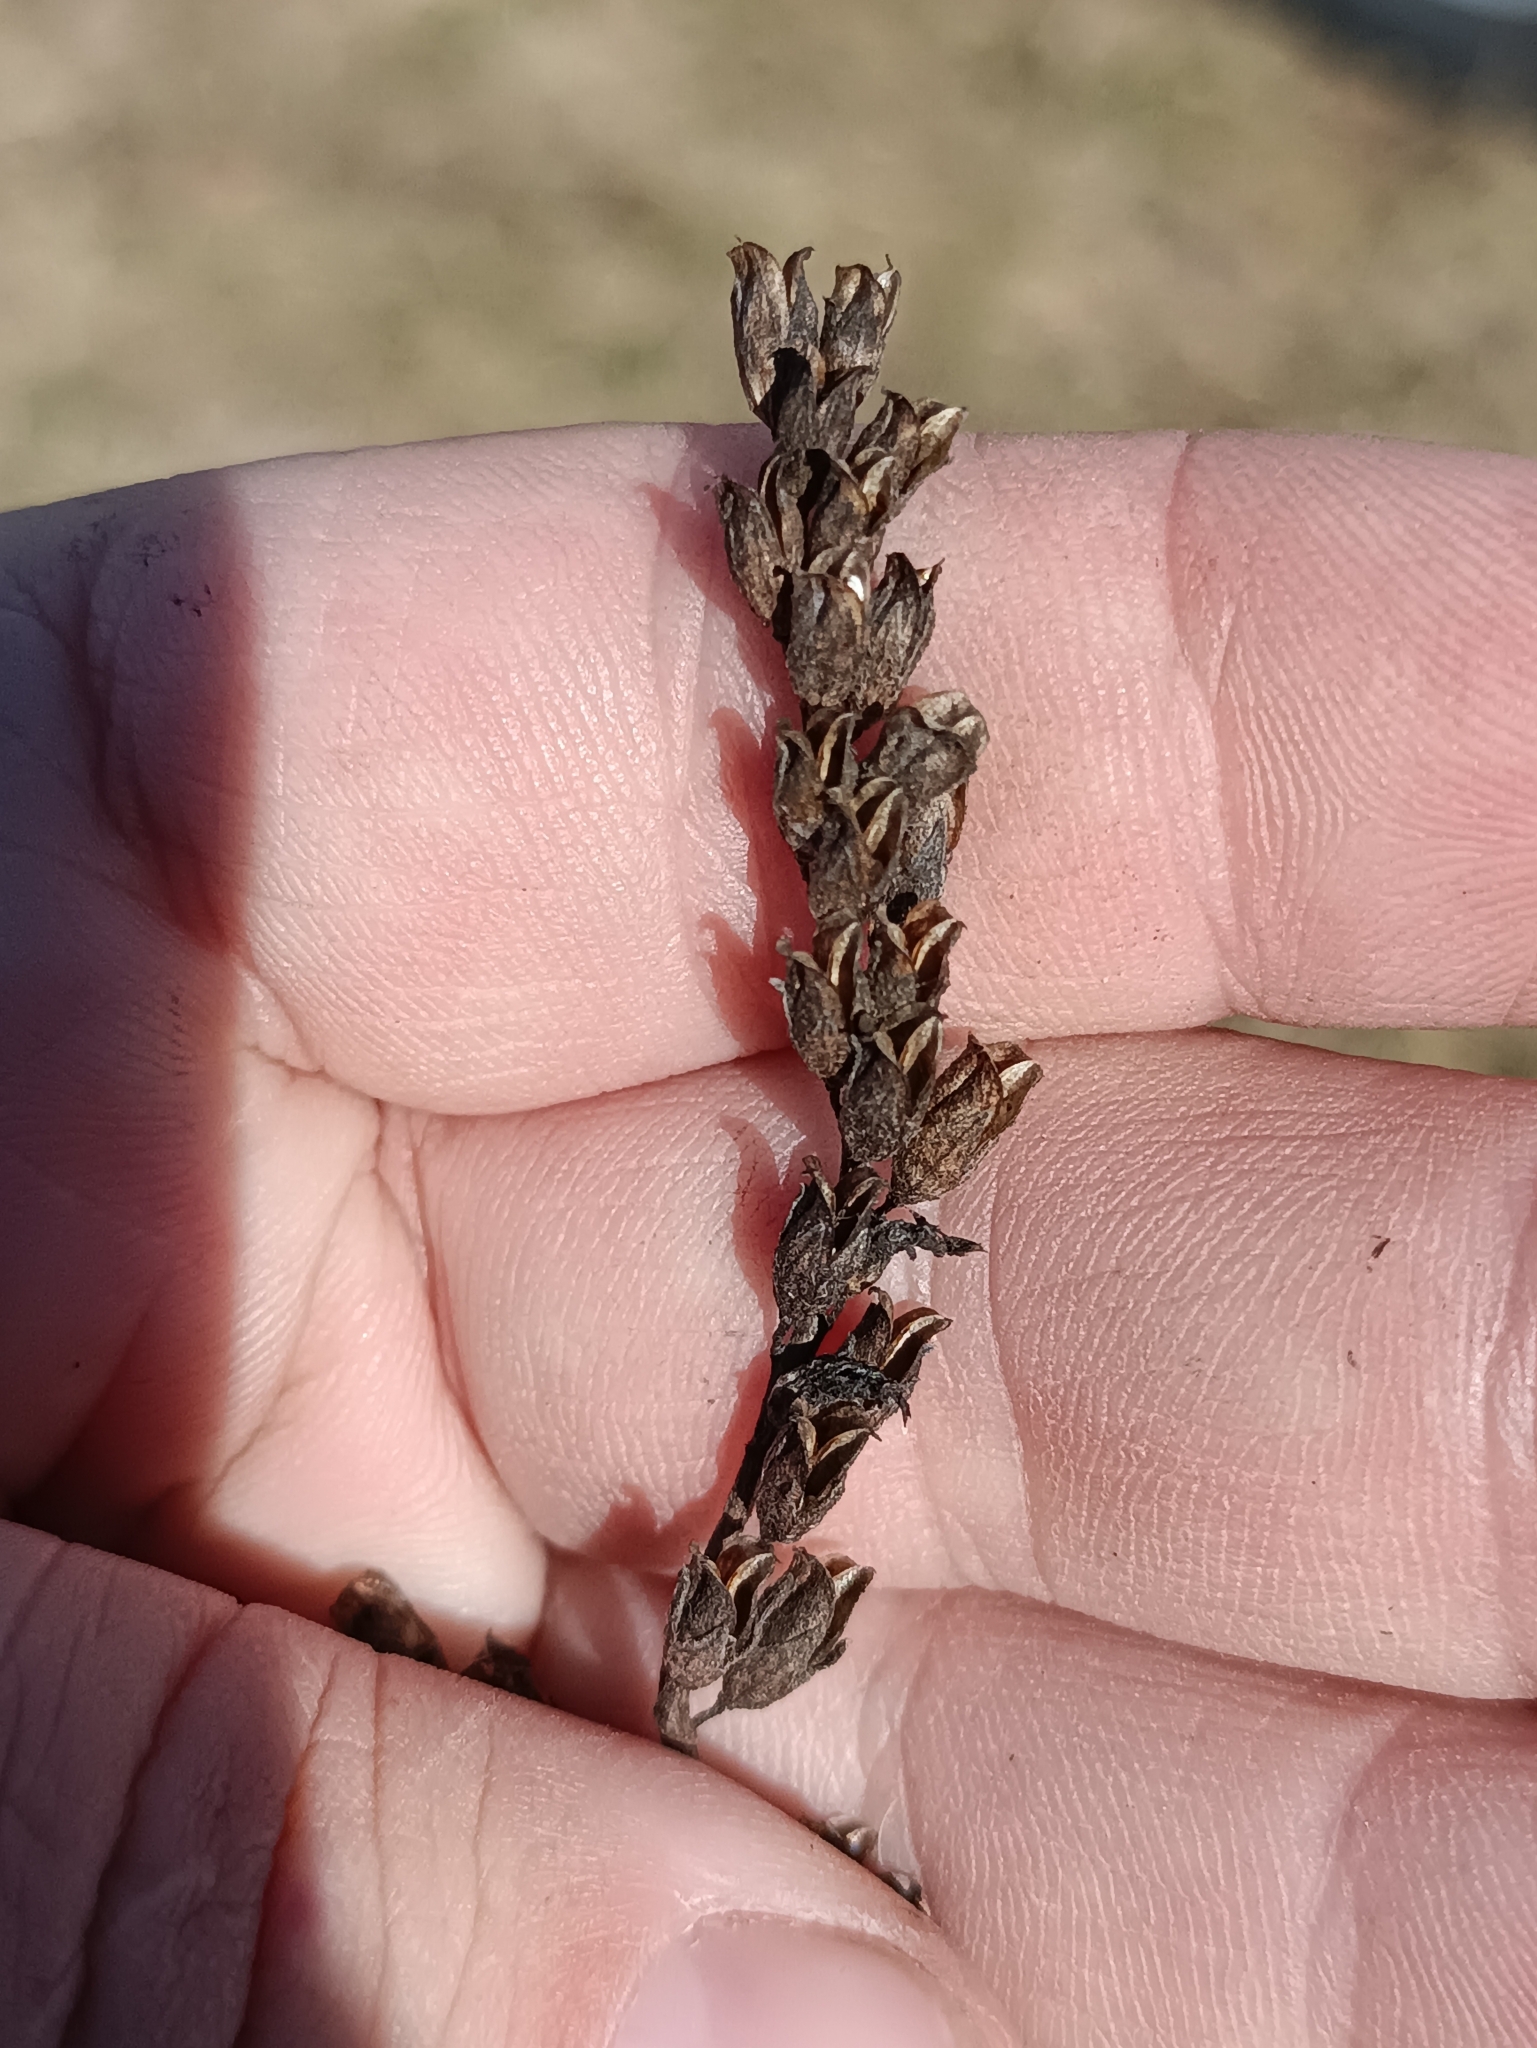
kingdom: Plantae
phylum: Tracheophyta
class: Magnoliopsida
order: Lamiales
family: Orobanchaceae
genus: Odontites
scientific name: Odontites vulgaris
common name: Broomrape
